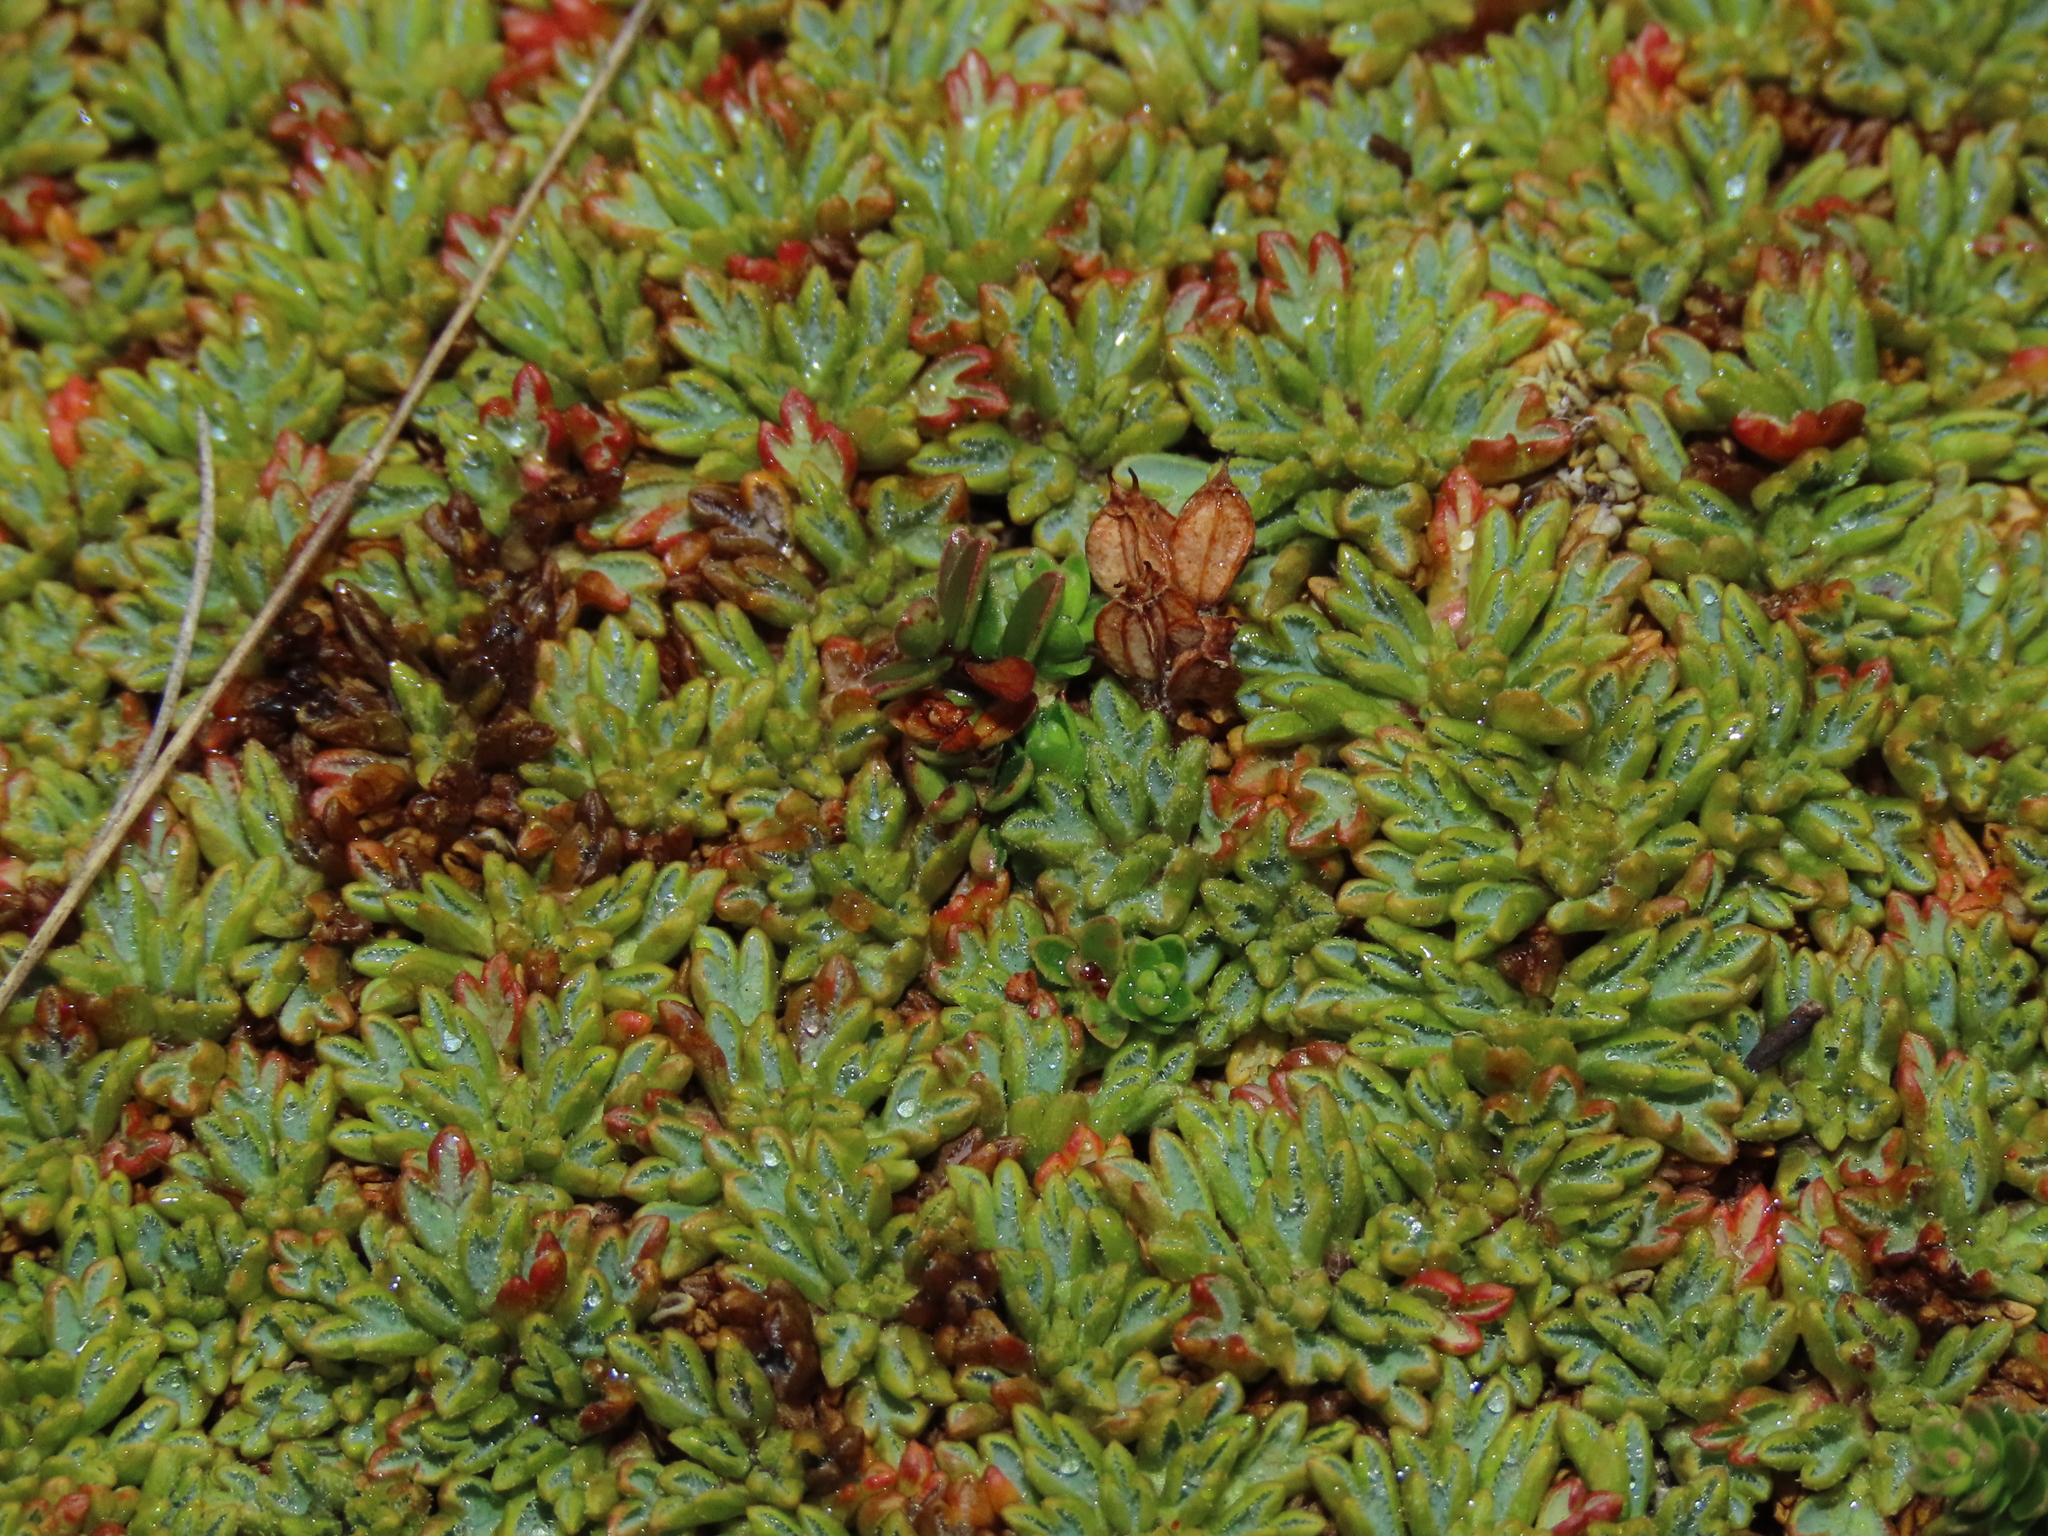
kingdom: Plantae
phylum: Tracheophyta
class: Magnoliopsida
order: Apiales
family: Apiaceae
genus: Bolax
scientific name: Bolax gummifera
